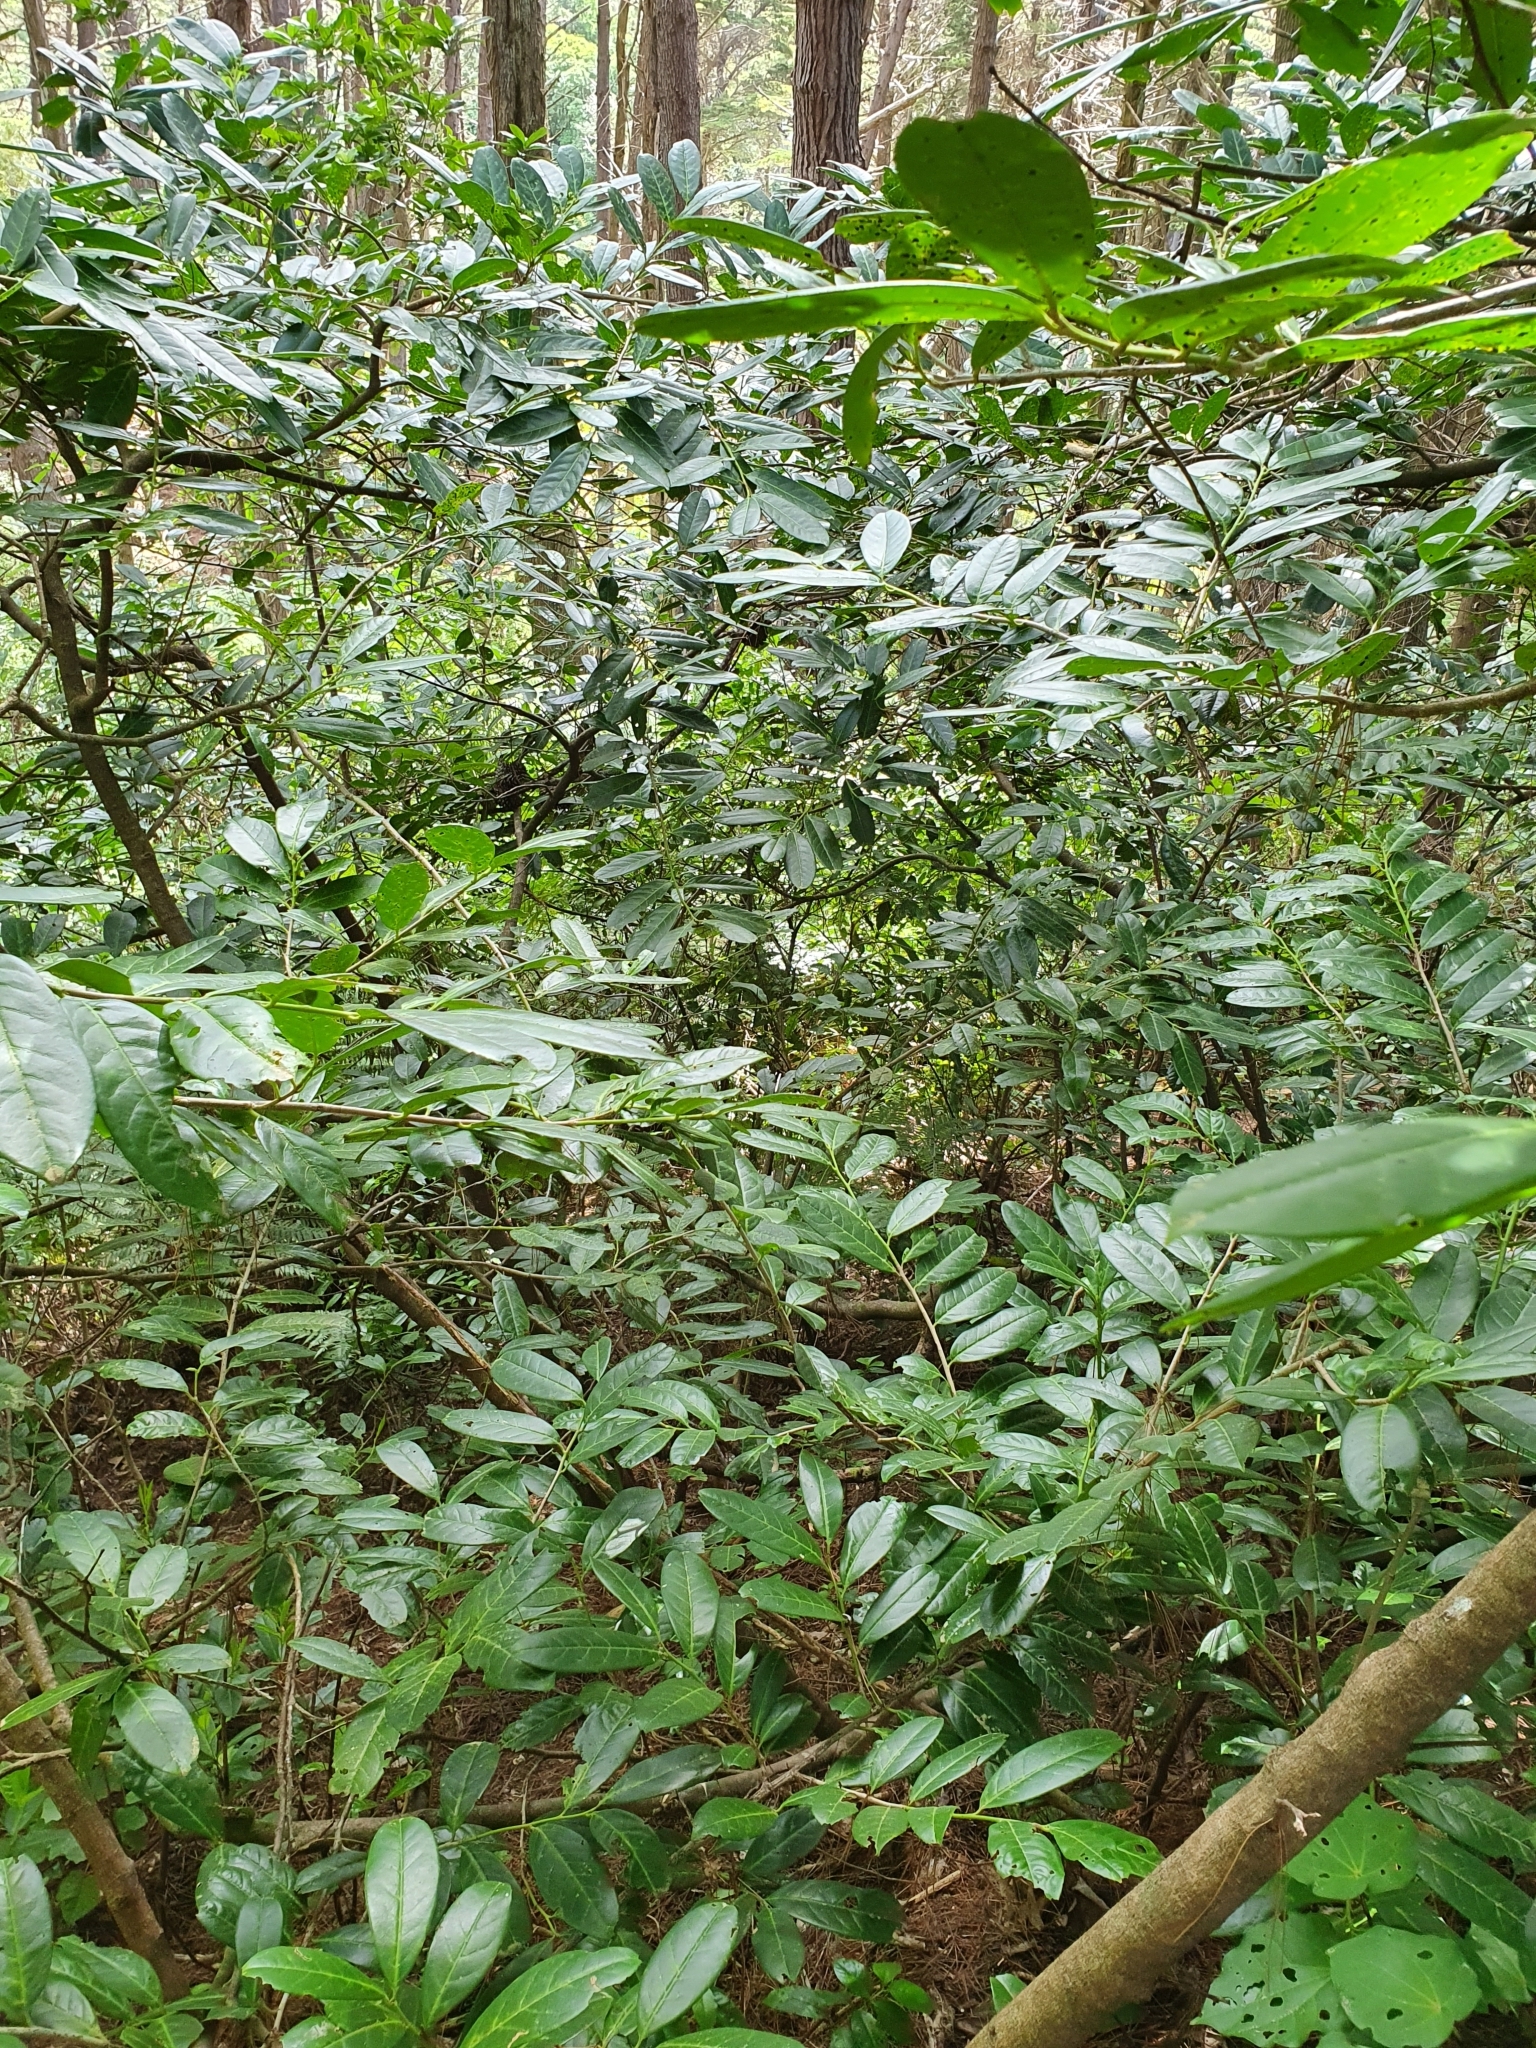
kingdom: Plantae
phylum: Tracheophyta
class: Magnoliopsida
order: Rosales
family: Rosaceae
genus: Prunus
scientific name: Prunus laurocerasus
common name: Cherry laurel
